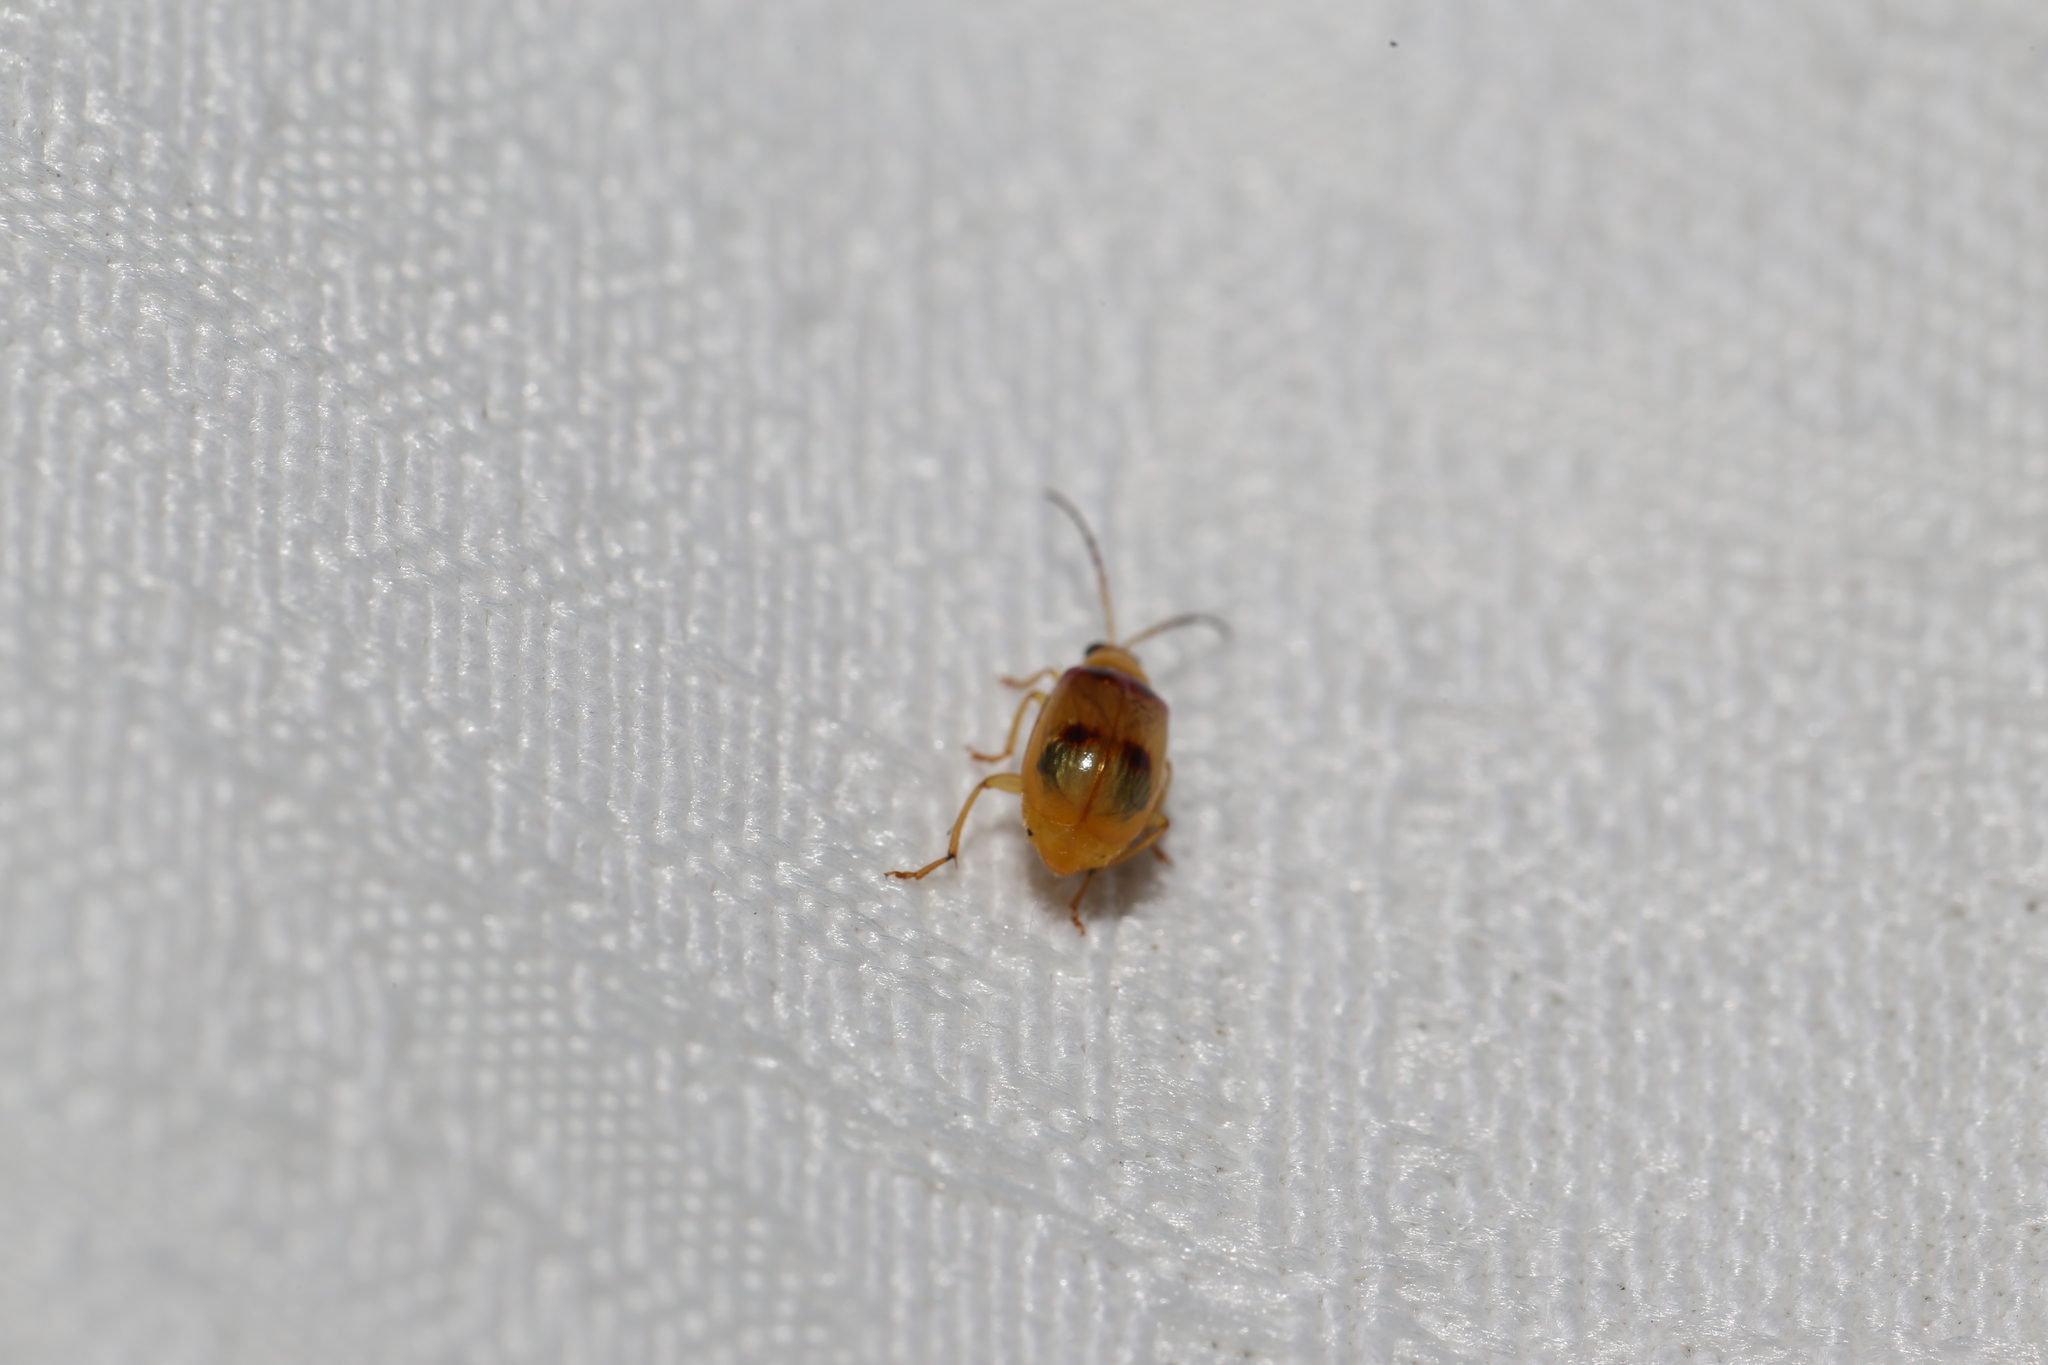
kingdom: Animalia
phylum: Arthropoda
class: Insecta
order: Coleoptera
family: Chrysomelidae
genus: Monolepta
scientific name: Monolepta
